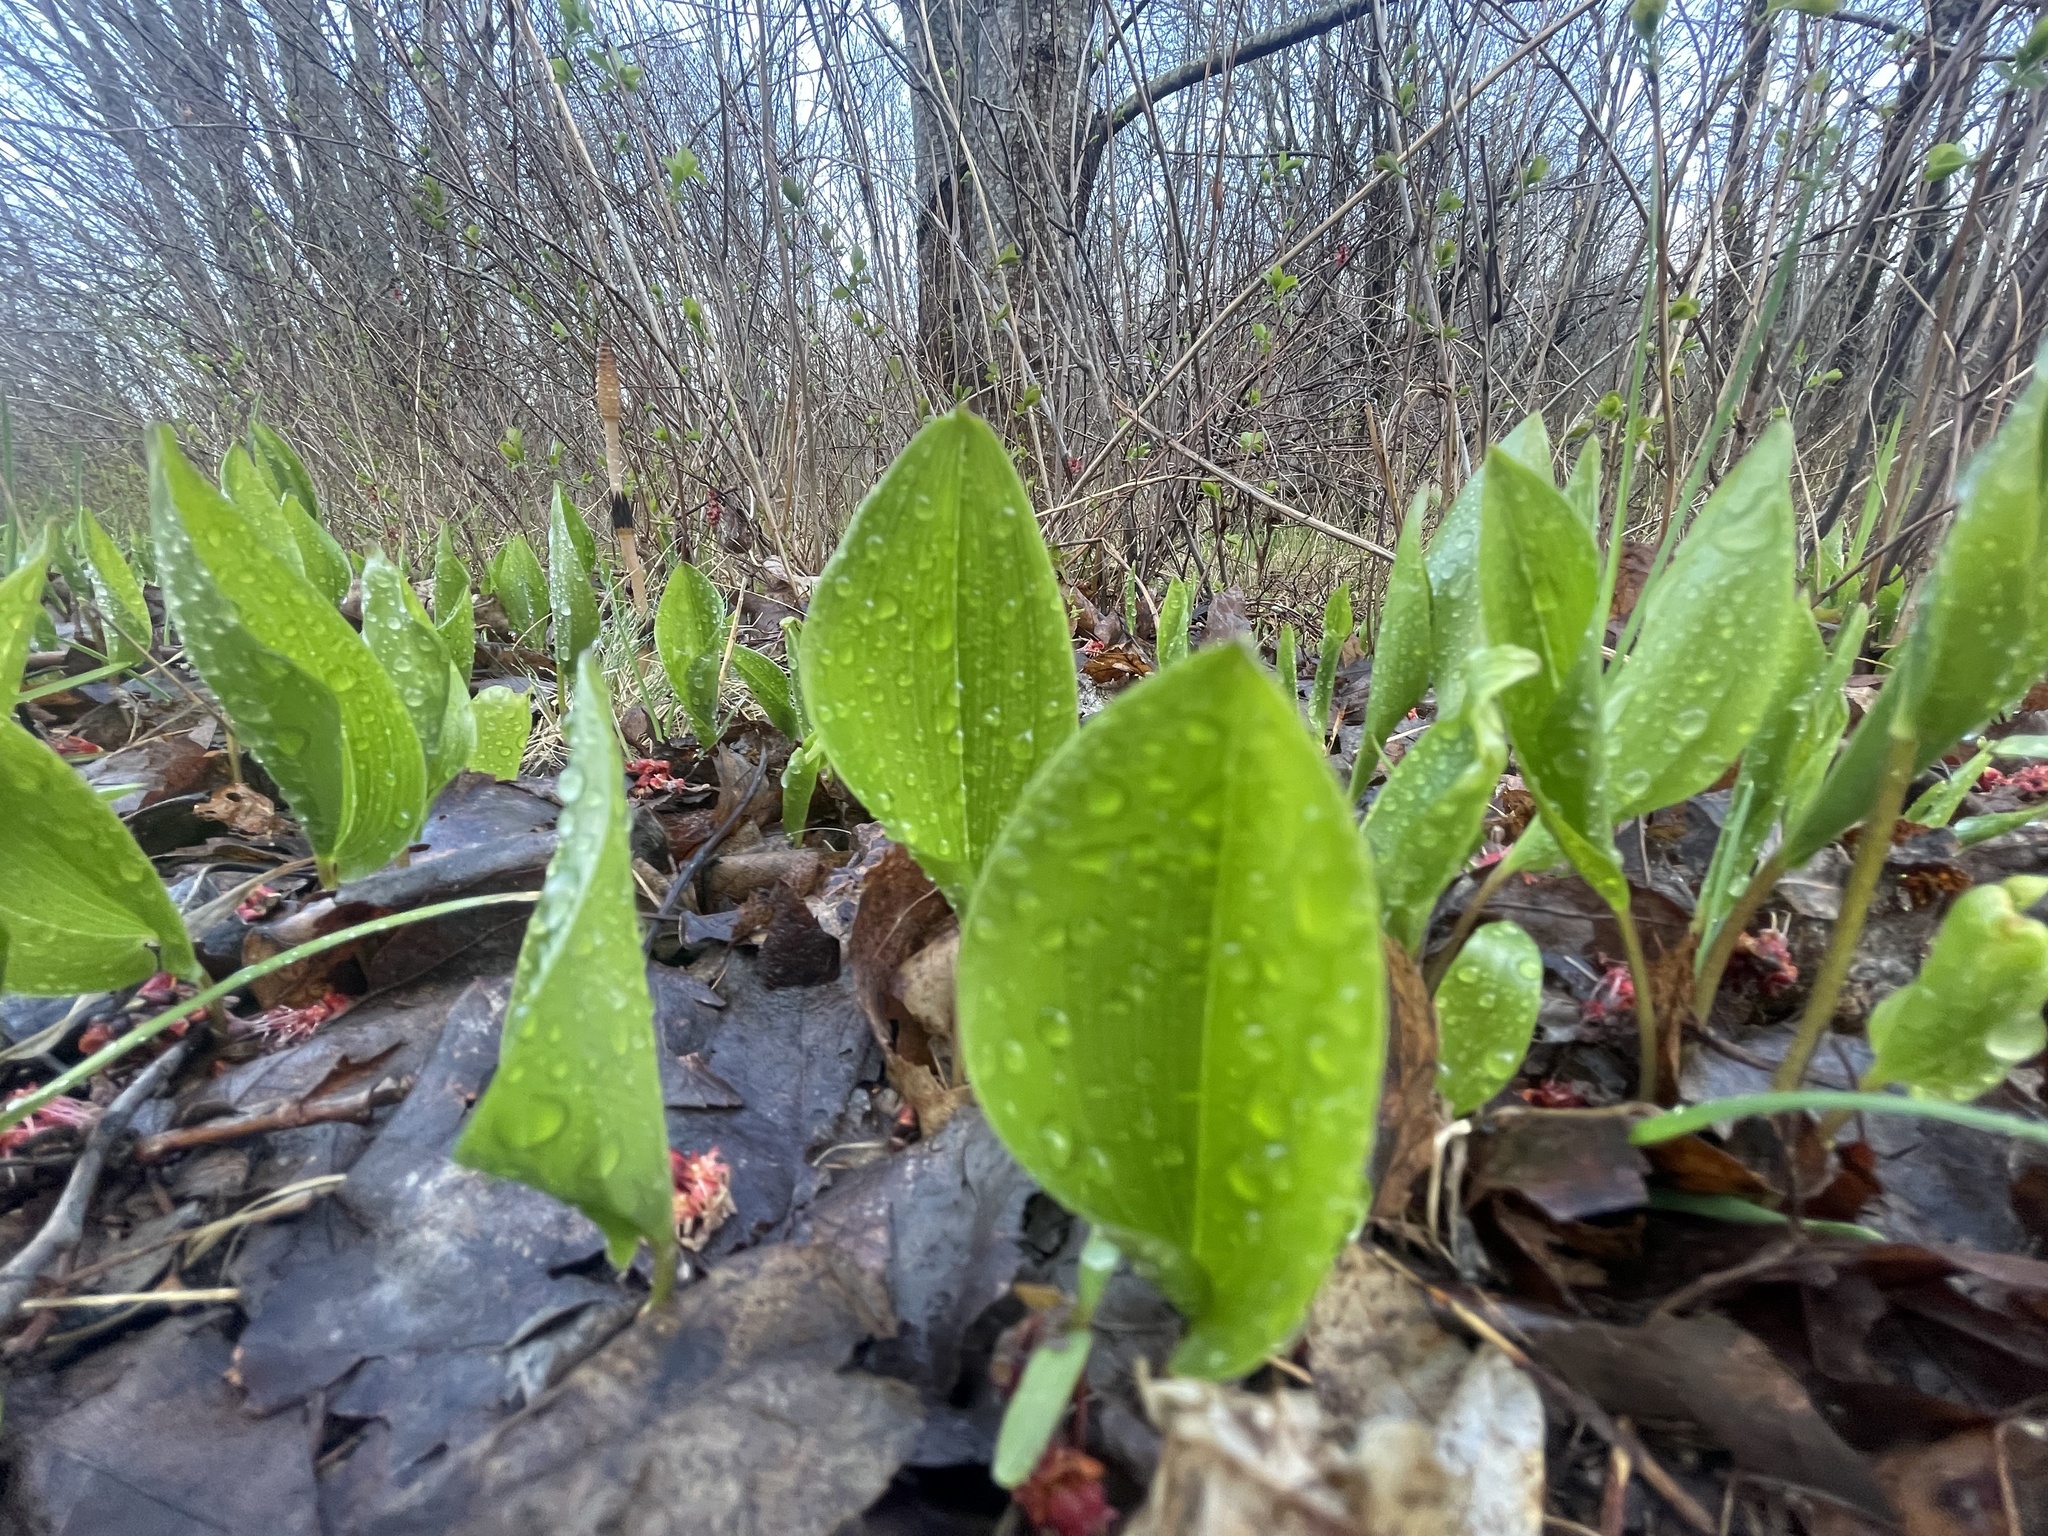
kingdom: Plantae
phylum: Tracheophyta
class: Liliopsida
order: Asparagales
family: Asparagaceae
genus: Maianthemum
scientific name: Maianthemum canadense
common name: False lily-of-the-valley
